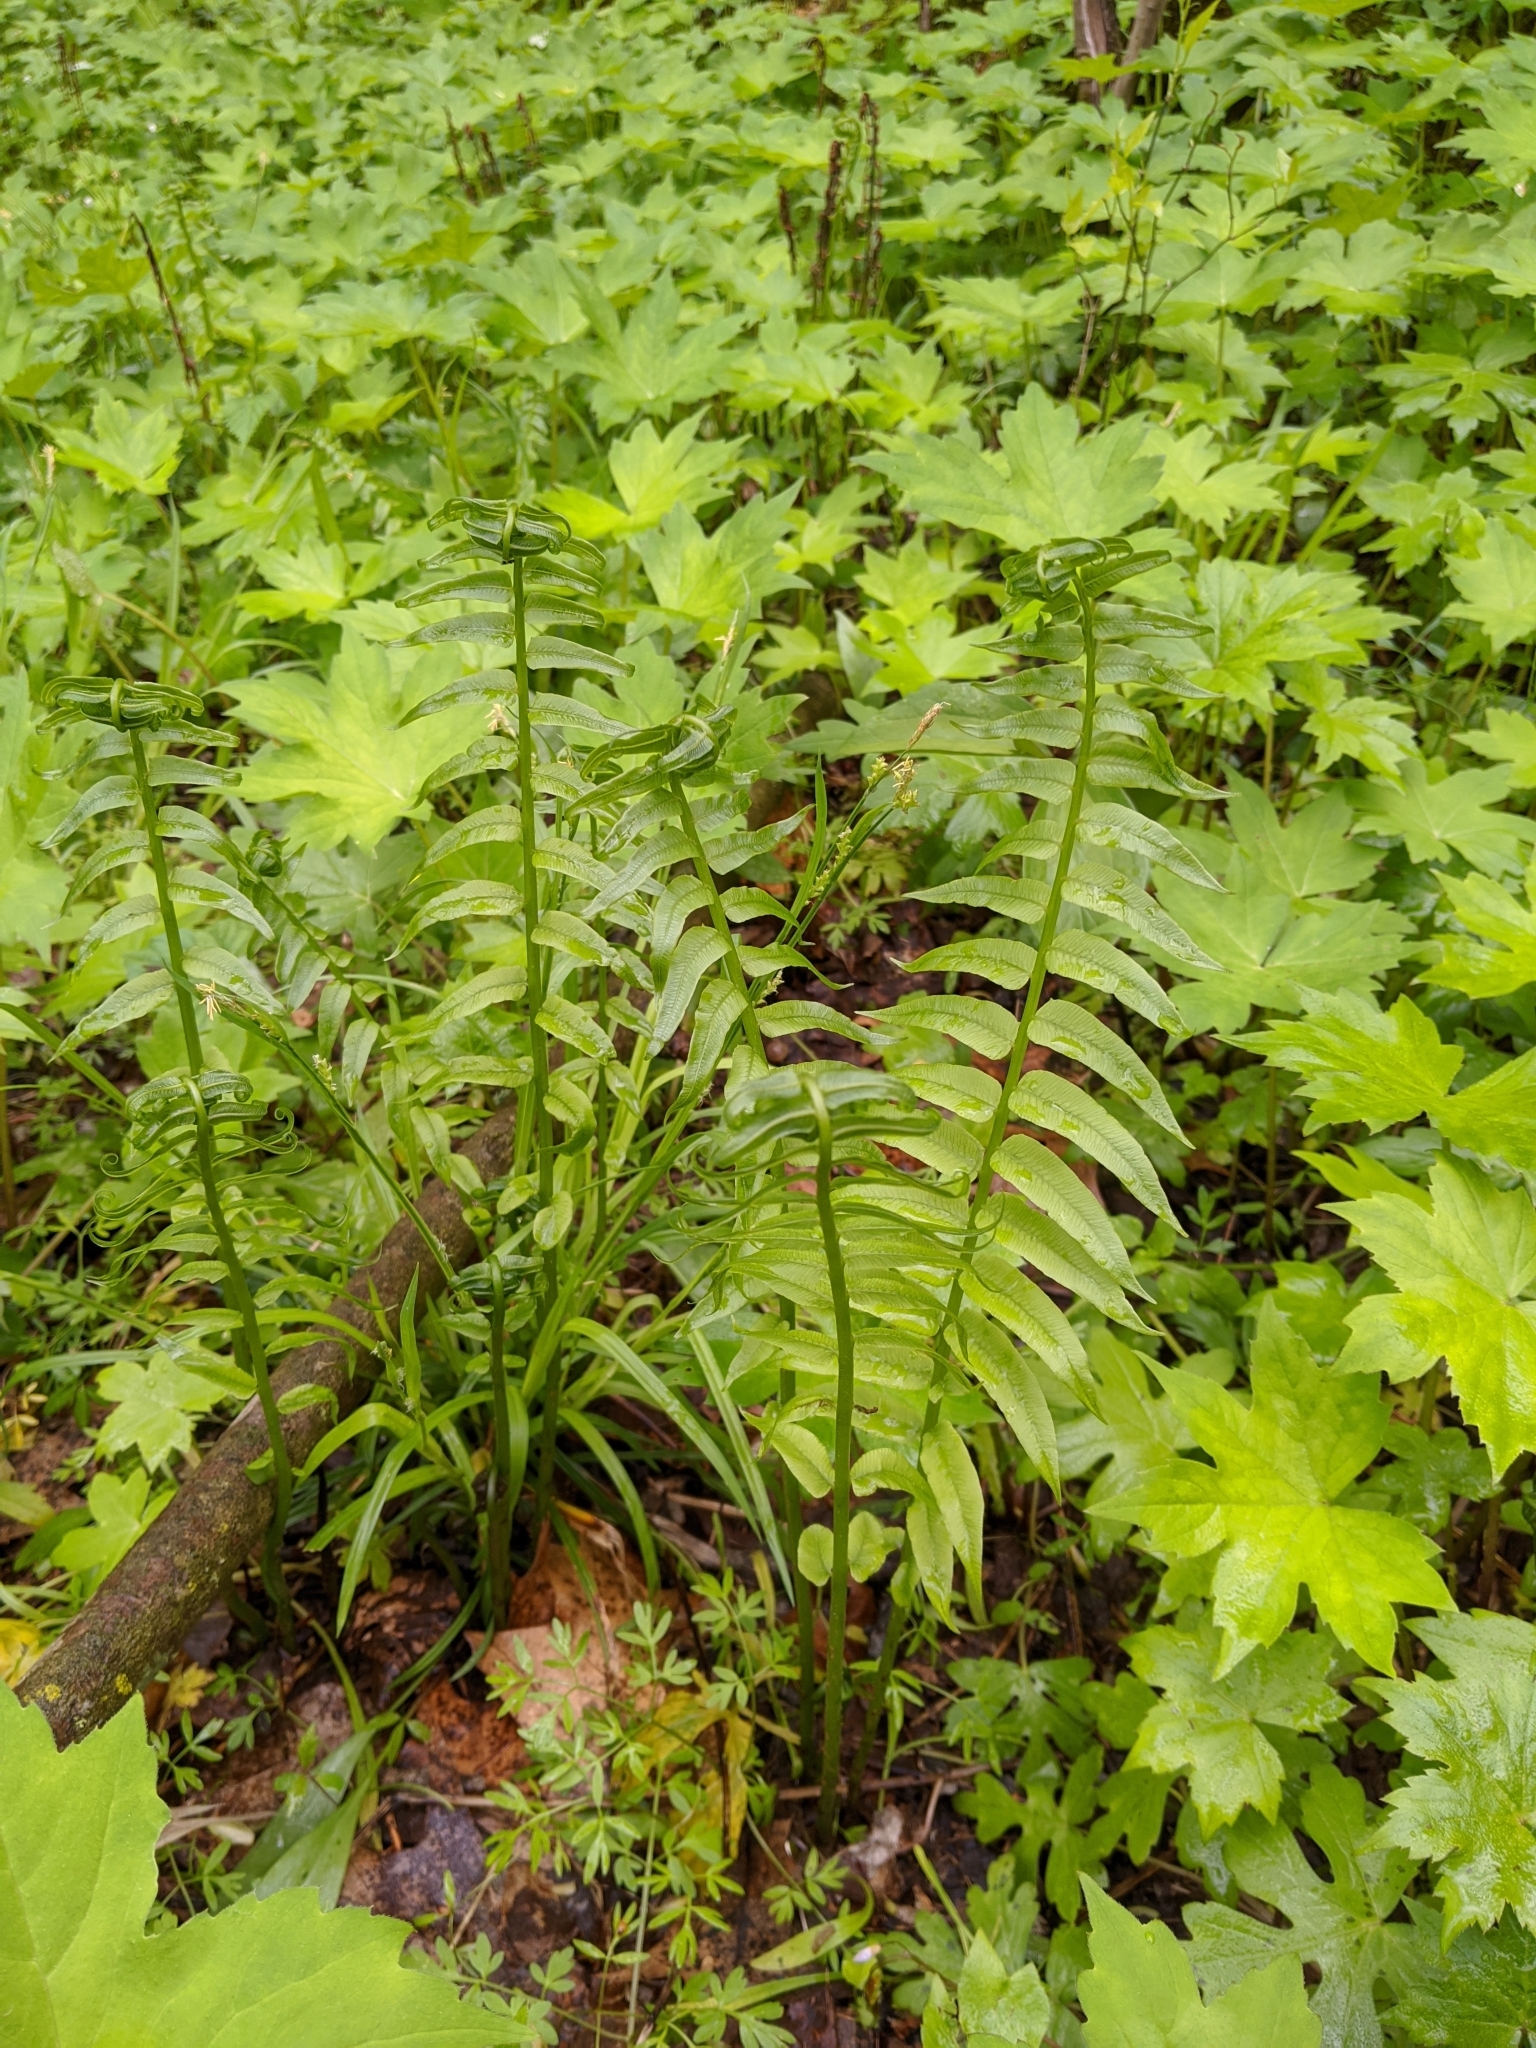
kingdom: Plantae
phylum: Tracheophyta
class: Polypodiopsida
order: Polypodiales
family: Diplaziopsidaceae
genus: Homalosorus
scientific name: Homalosorus pycnocarpos
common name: Glade fern
